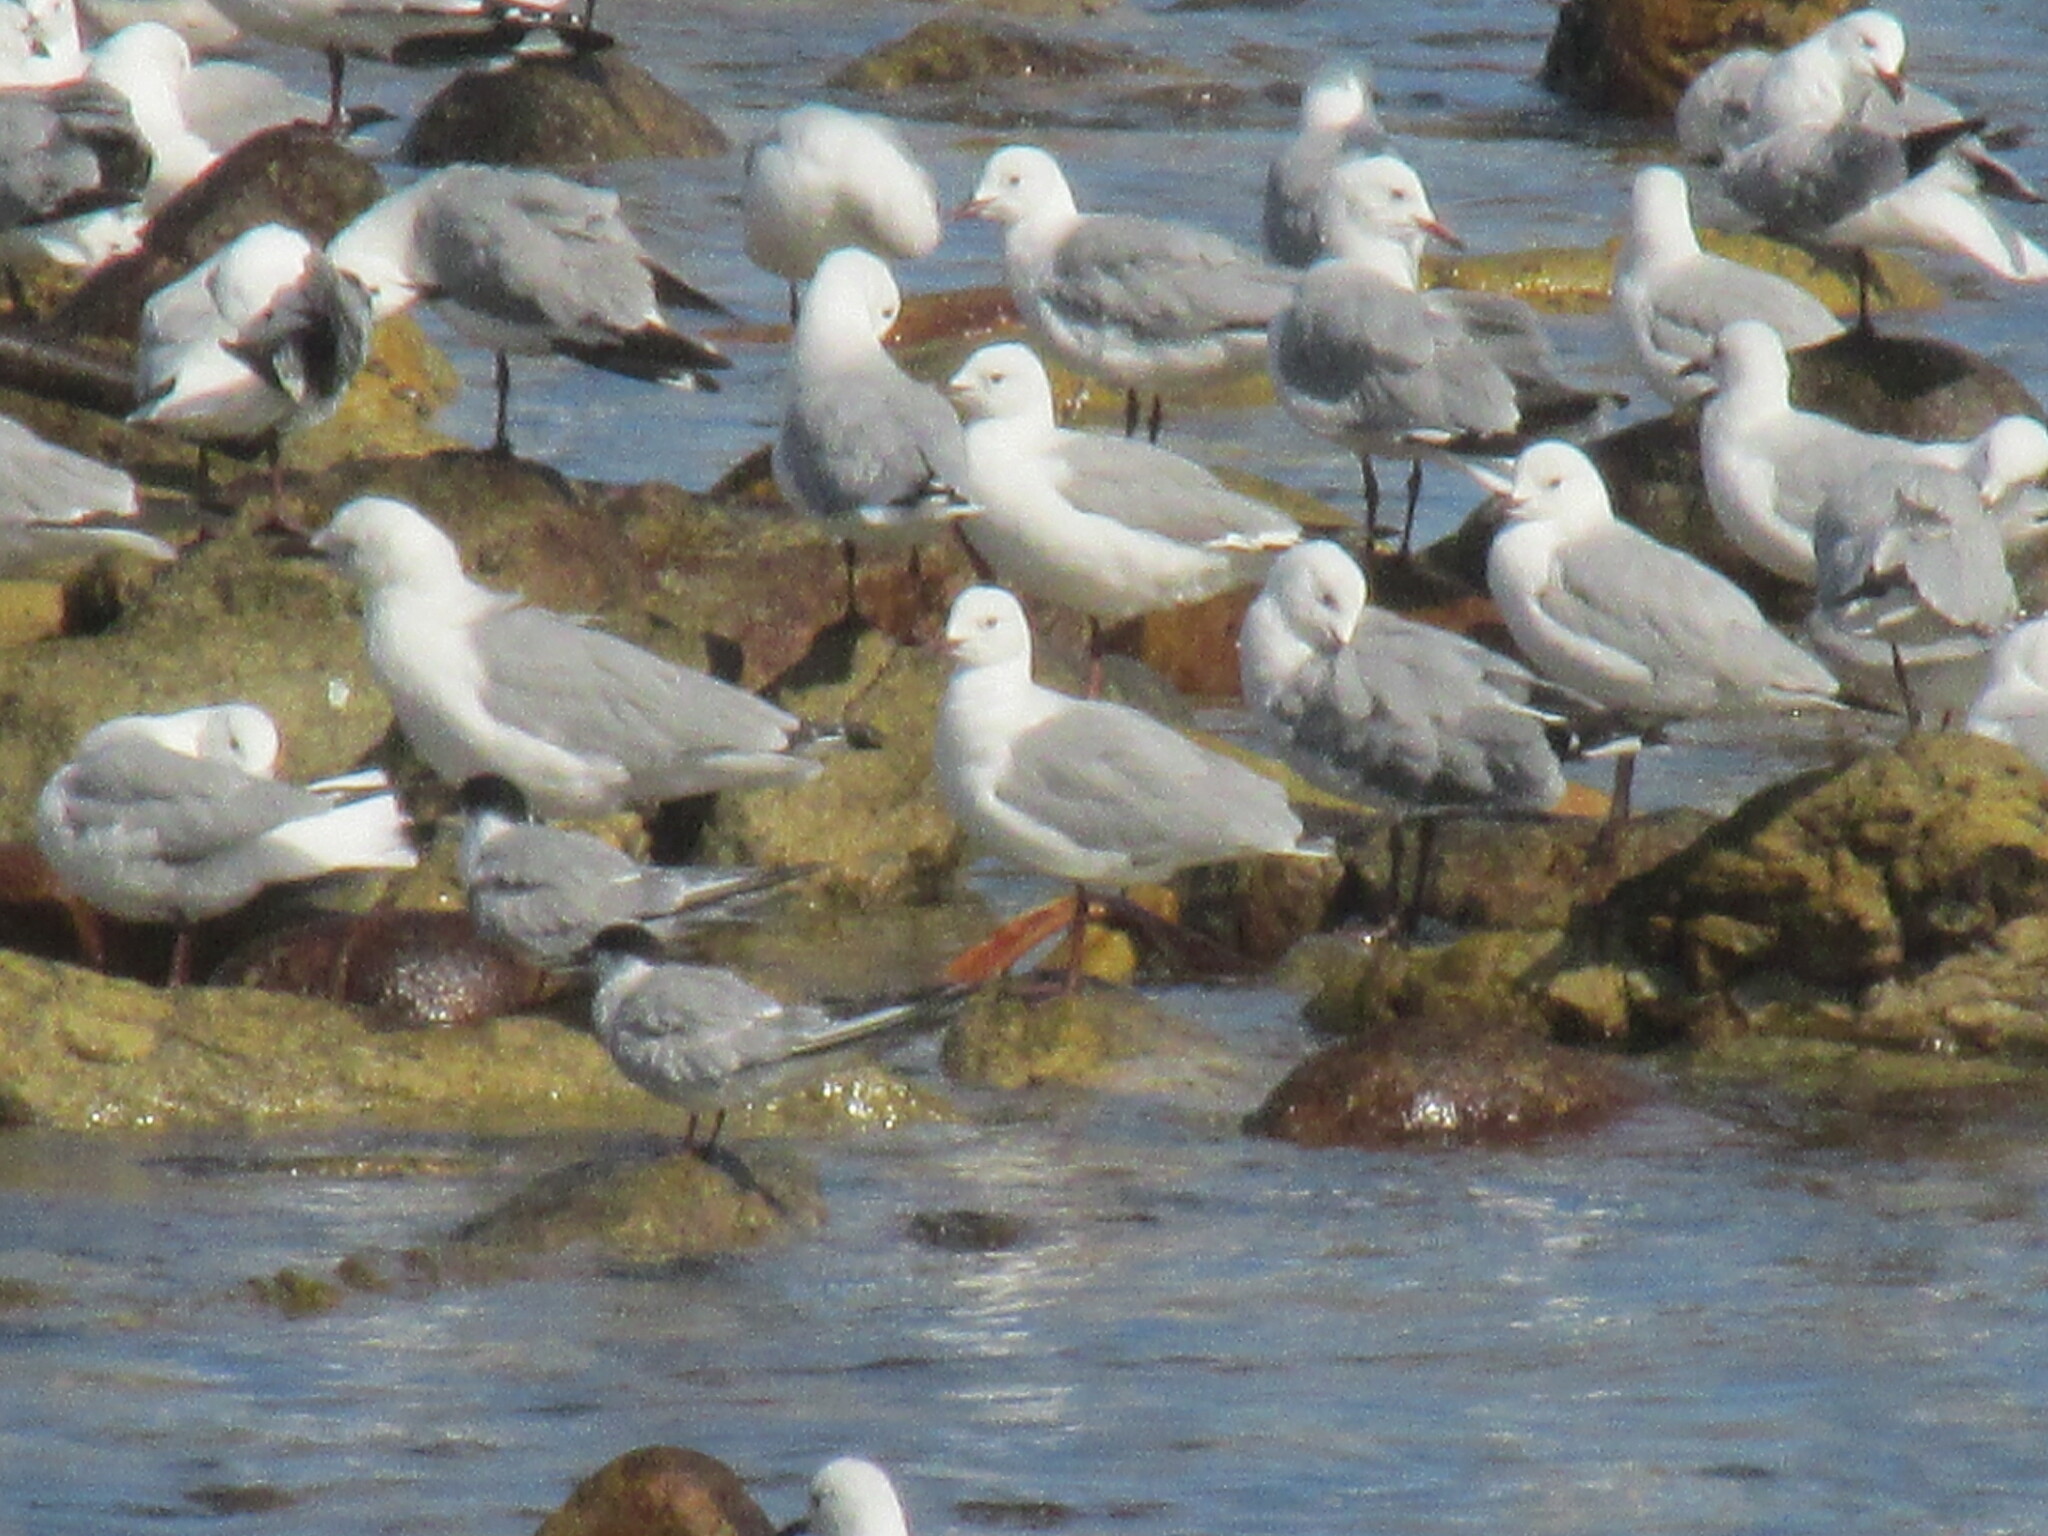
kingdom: Animalia
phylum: Chordata
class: Aves
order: Charadriiformes
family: Laridae
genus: Sterna
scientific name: Sterna hirundo
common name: Common tern
